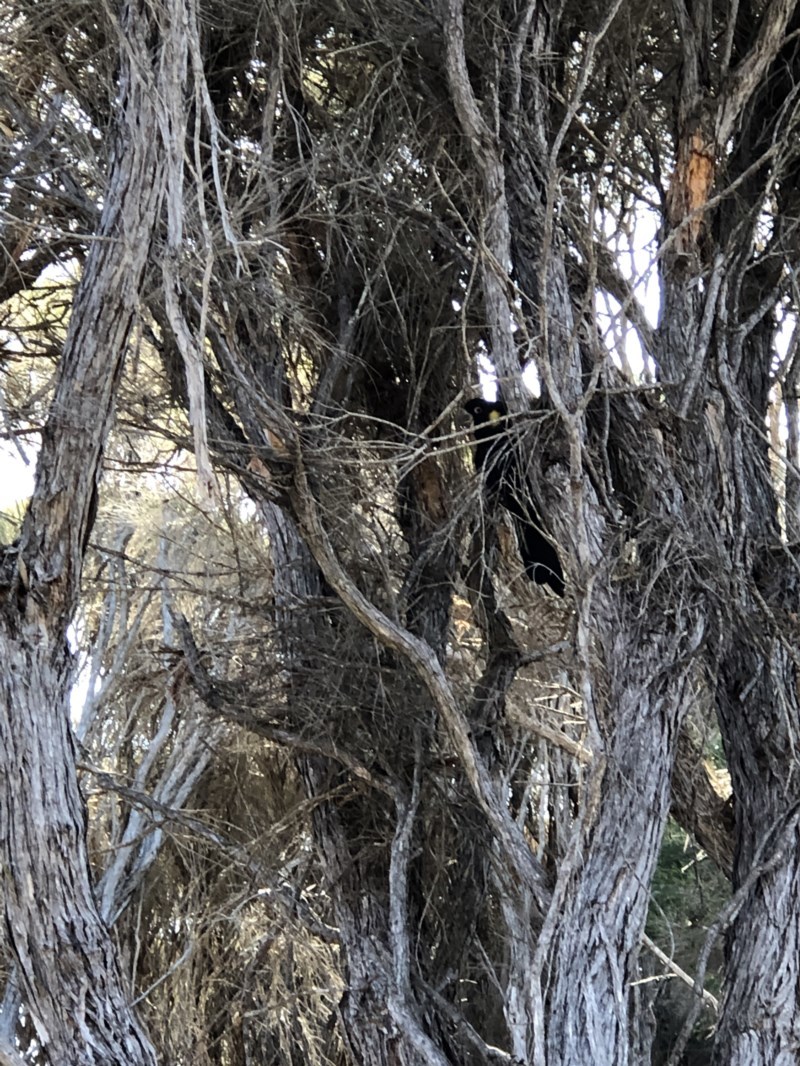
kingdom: Animalia
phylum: Chordata
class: Aves
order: Psittaciformes
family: Cacatuidae
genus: Zanda
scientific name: Zanda funerea
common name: Yellow-tailed black-cockatoo
